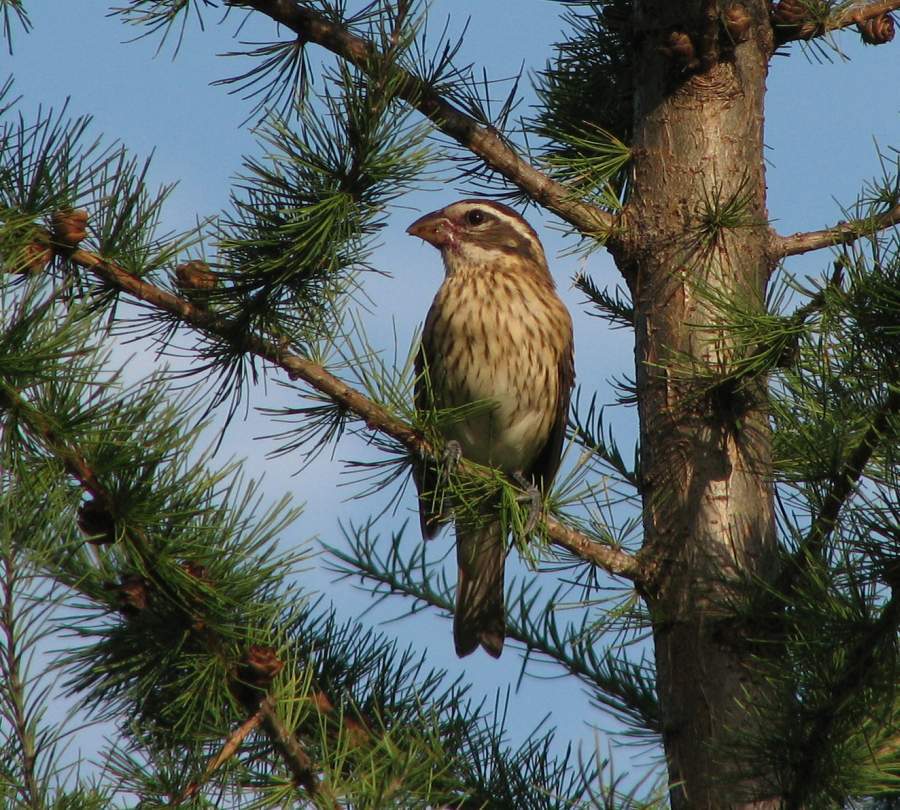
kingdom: Animalia
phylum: Chordata
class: Aves
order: Passeriformes
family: Cardinalidae
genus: Pheucticus
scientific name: Pheucticus ludovicianus
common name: Rose-breasted grosbeak
